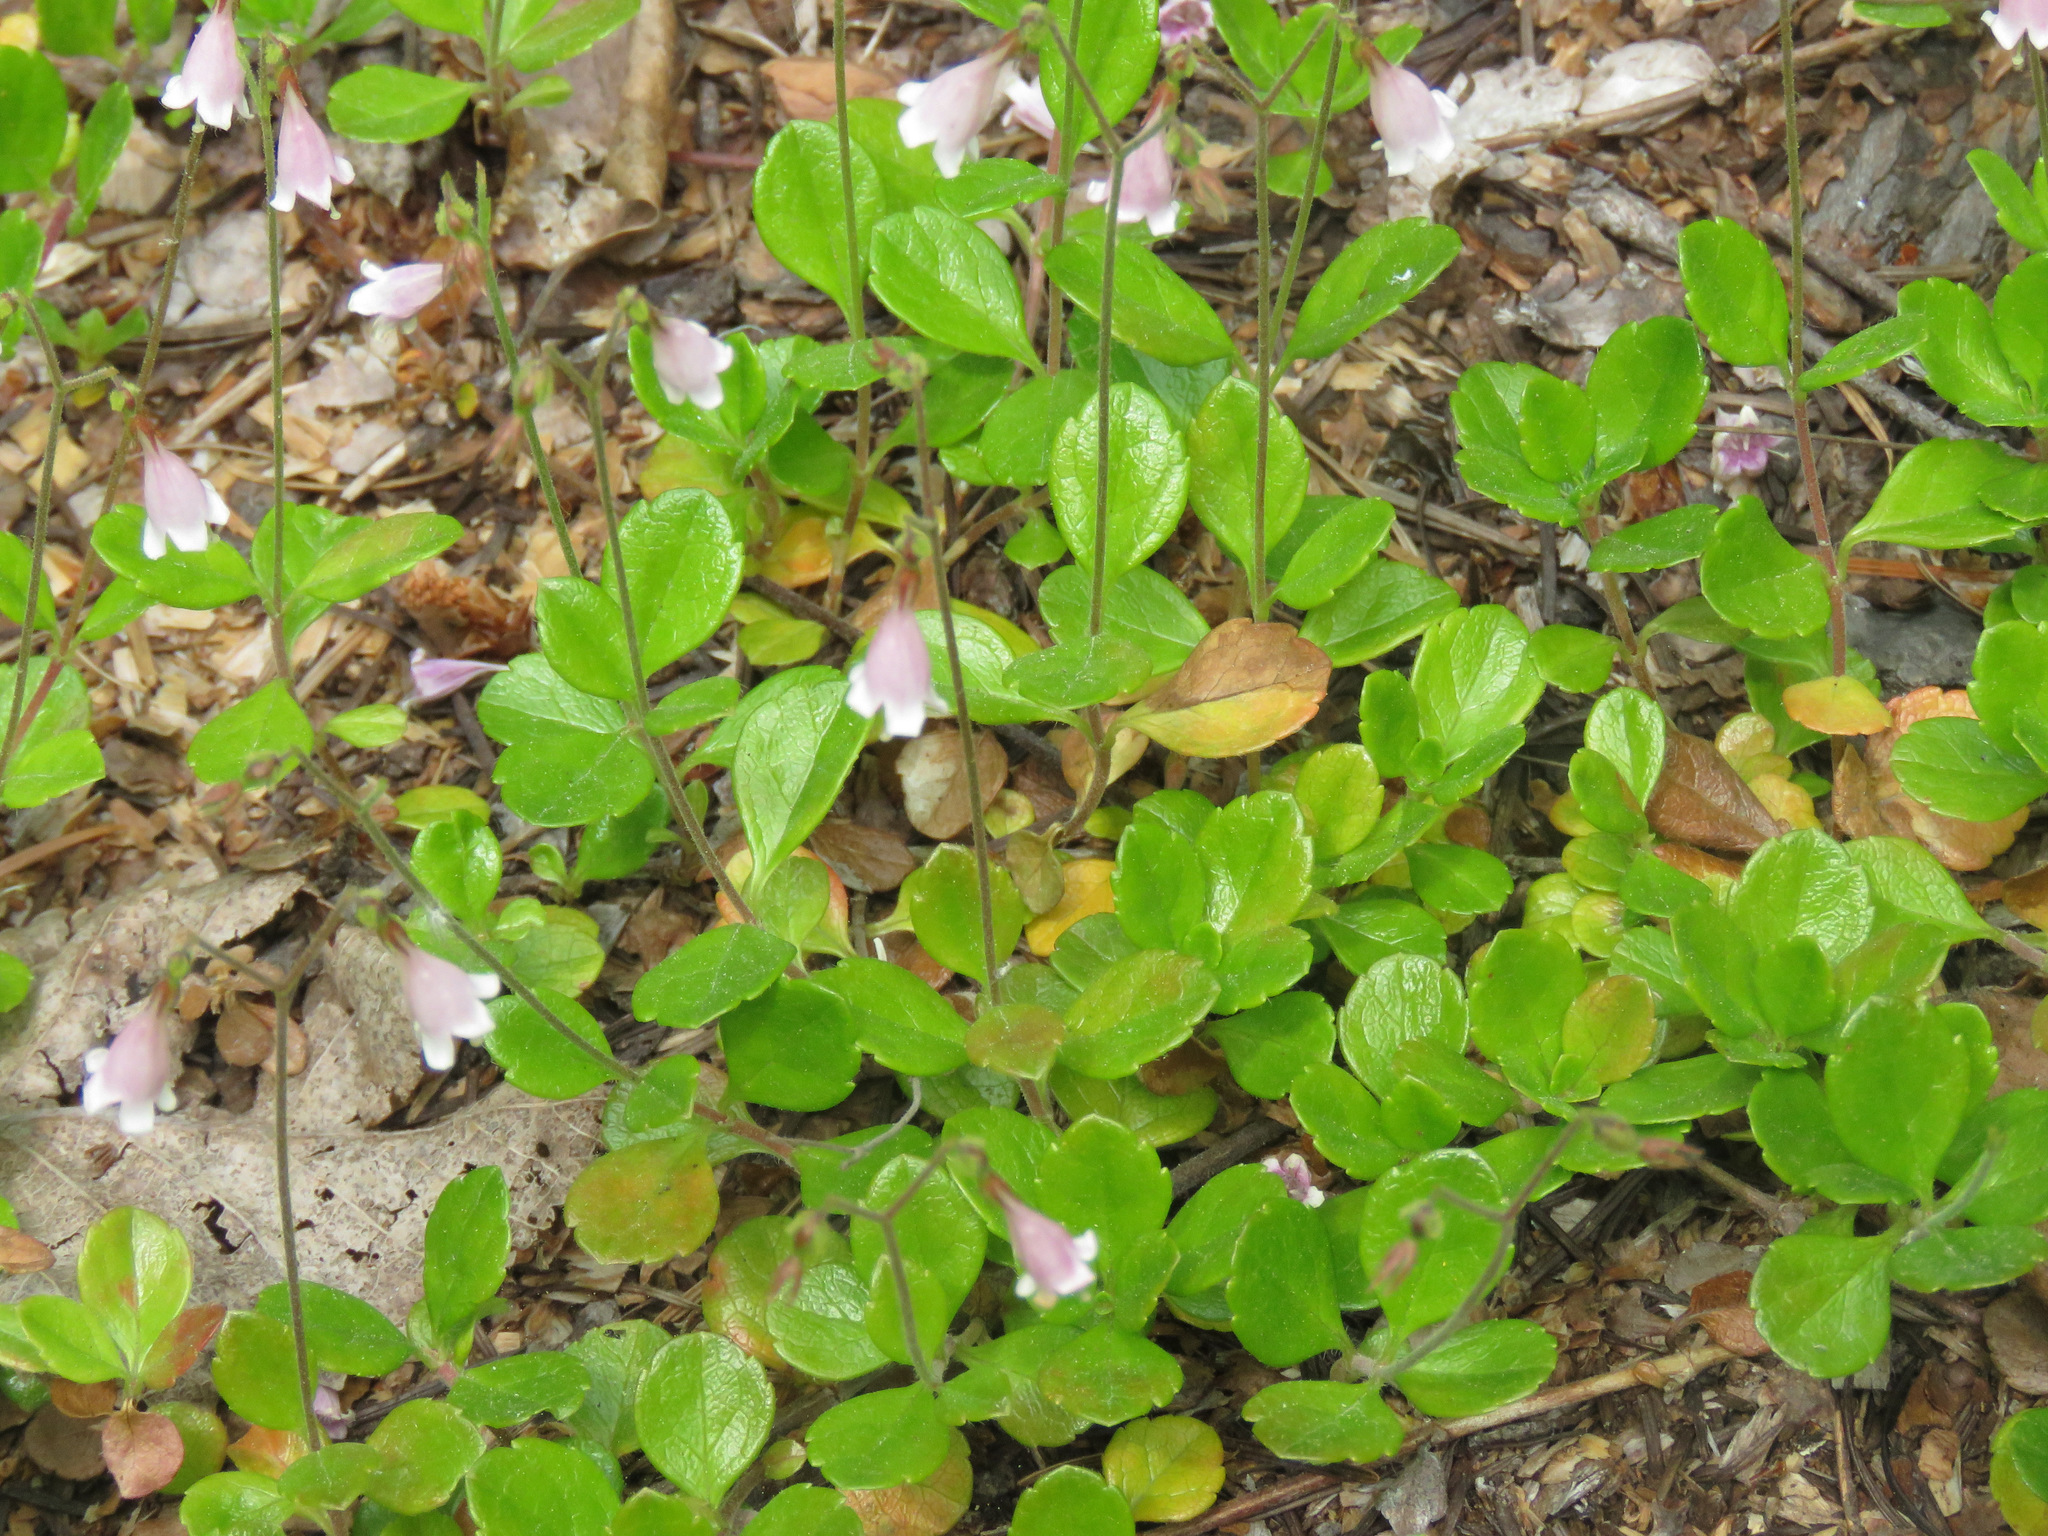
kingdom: Plantae
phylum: Tracheophyta
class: Magnoliopsida
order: Dipsacales
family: Caprifoliaceae
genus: Linnaea
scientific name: Linnaea borealis
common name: Twinflower
